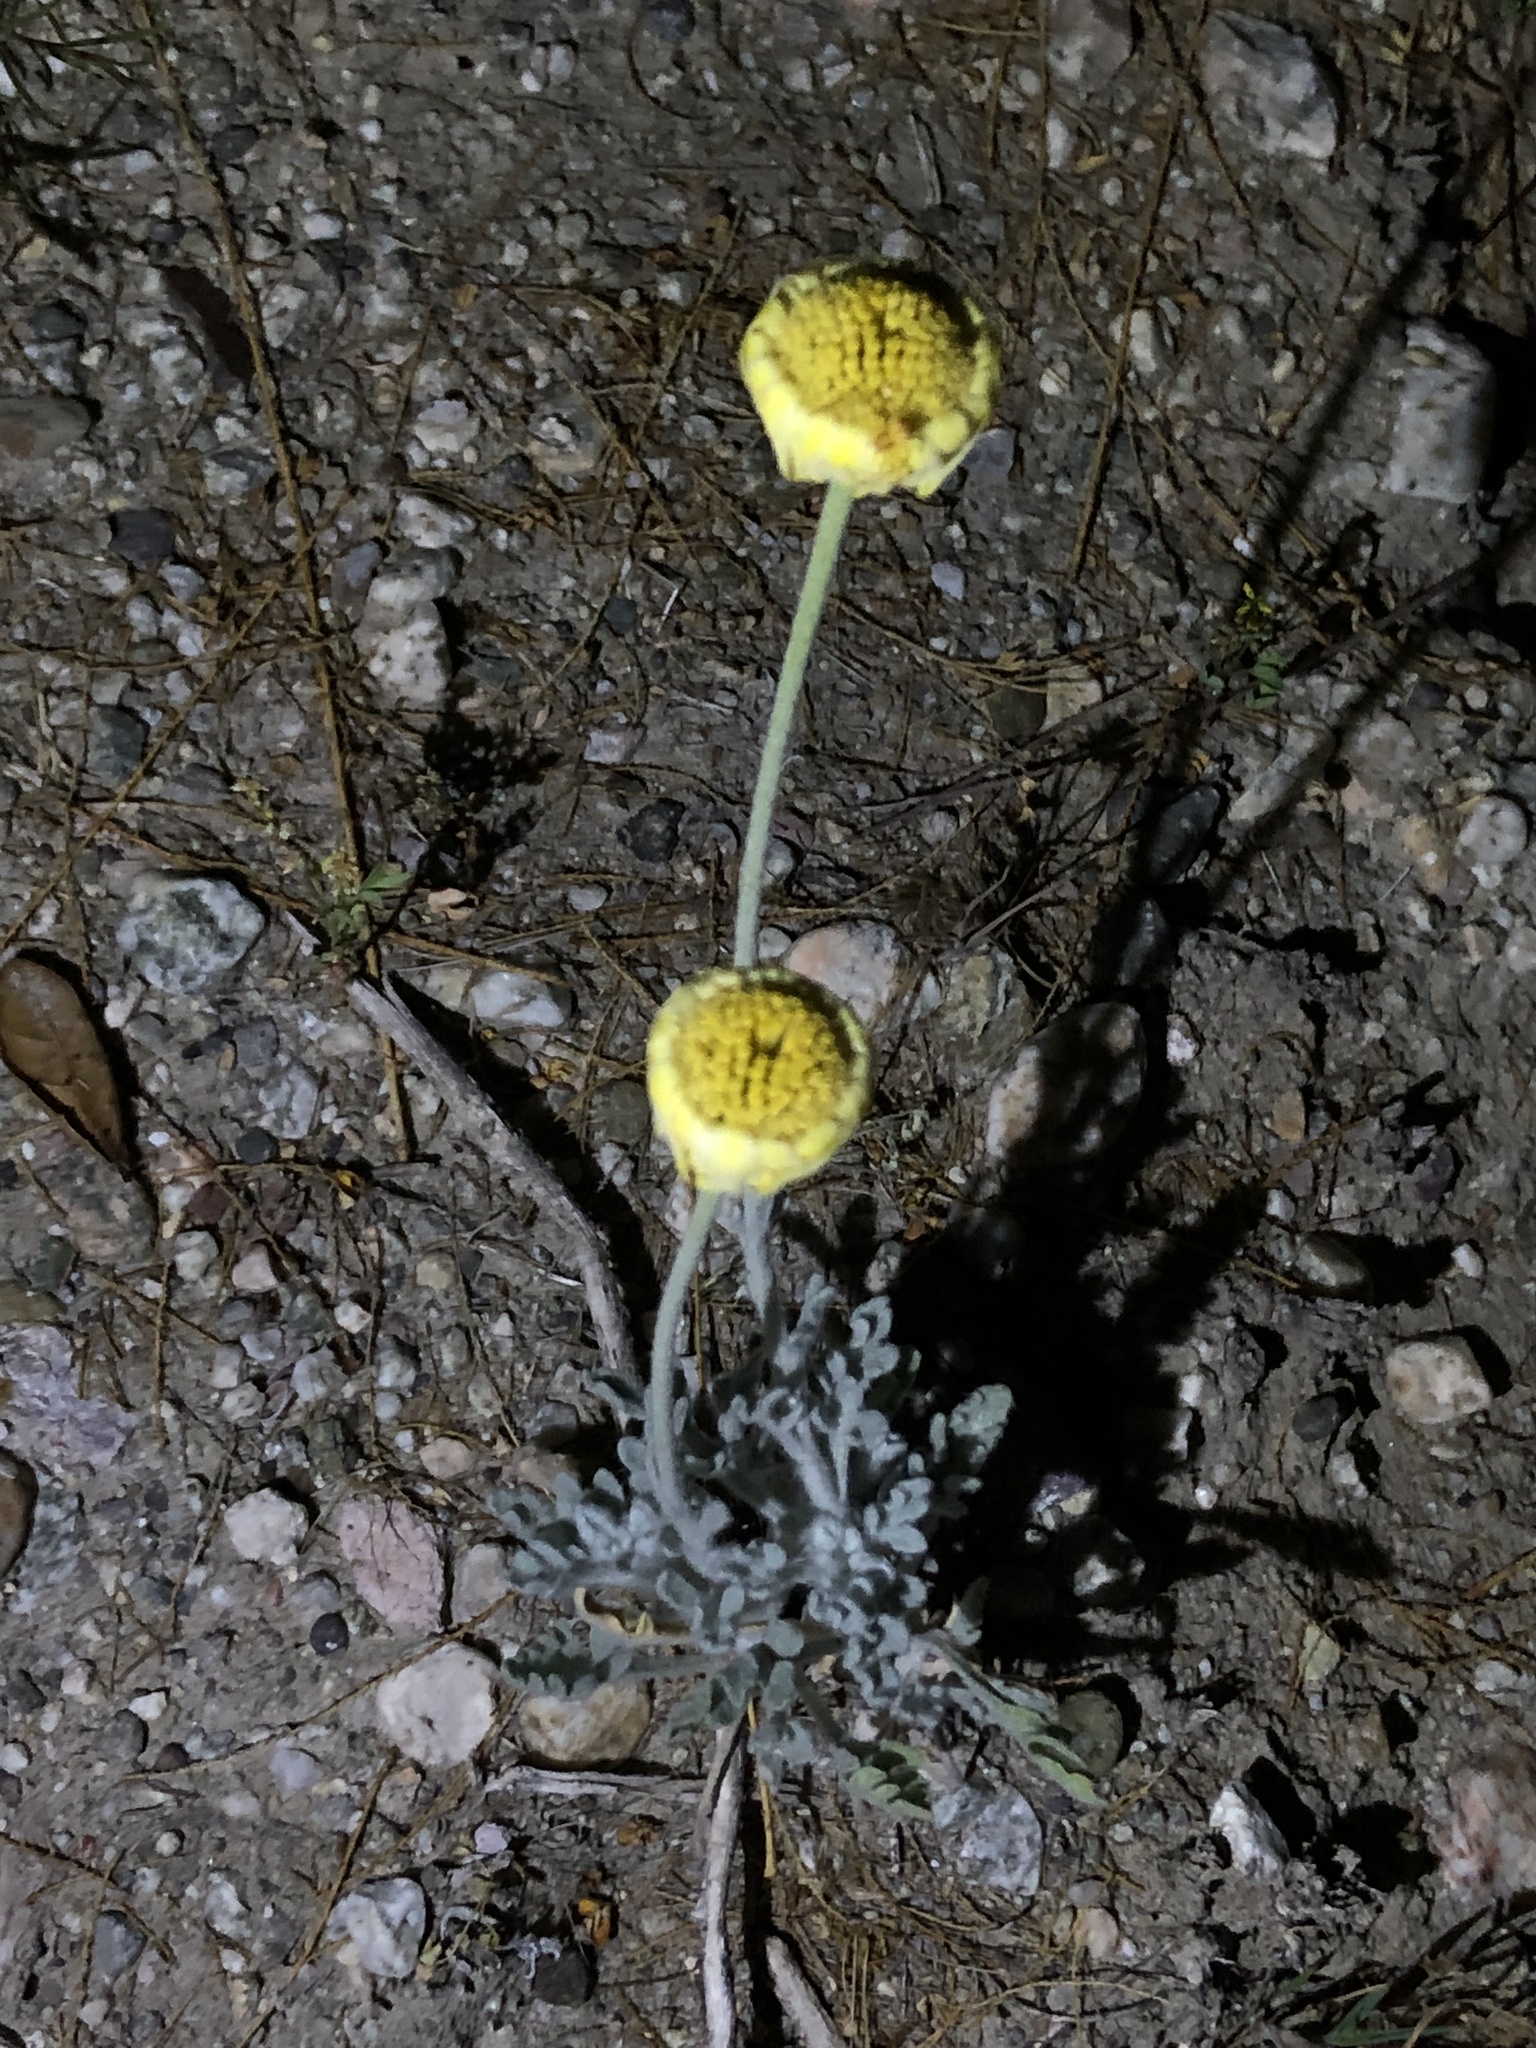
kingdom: Plantae
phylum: Tracheophyta
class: Magnoliopsida
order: Asterales
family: Asteraceae
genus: Baileya
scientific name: Baileya multiradiata
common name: Desert-marigold
